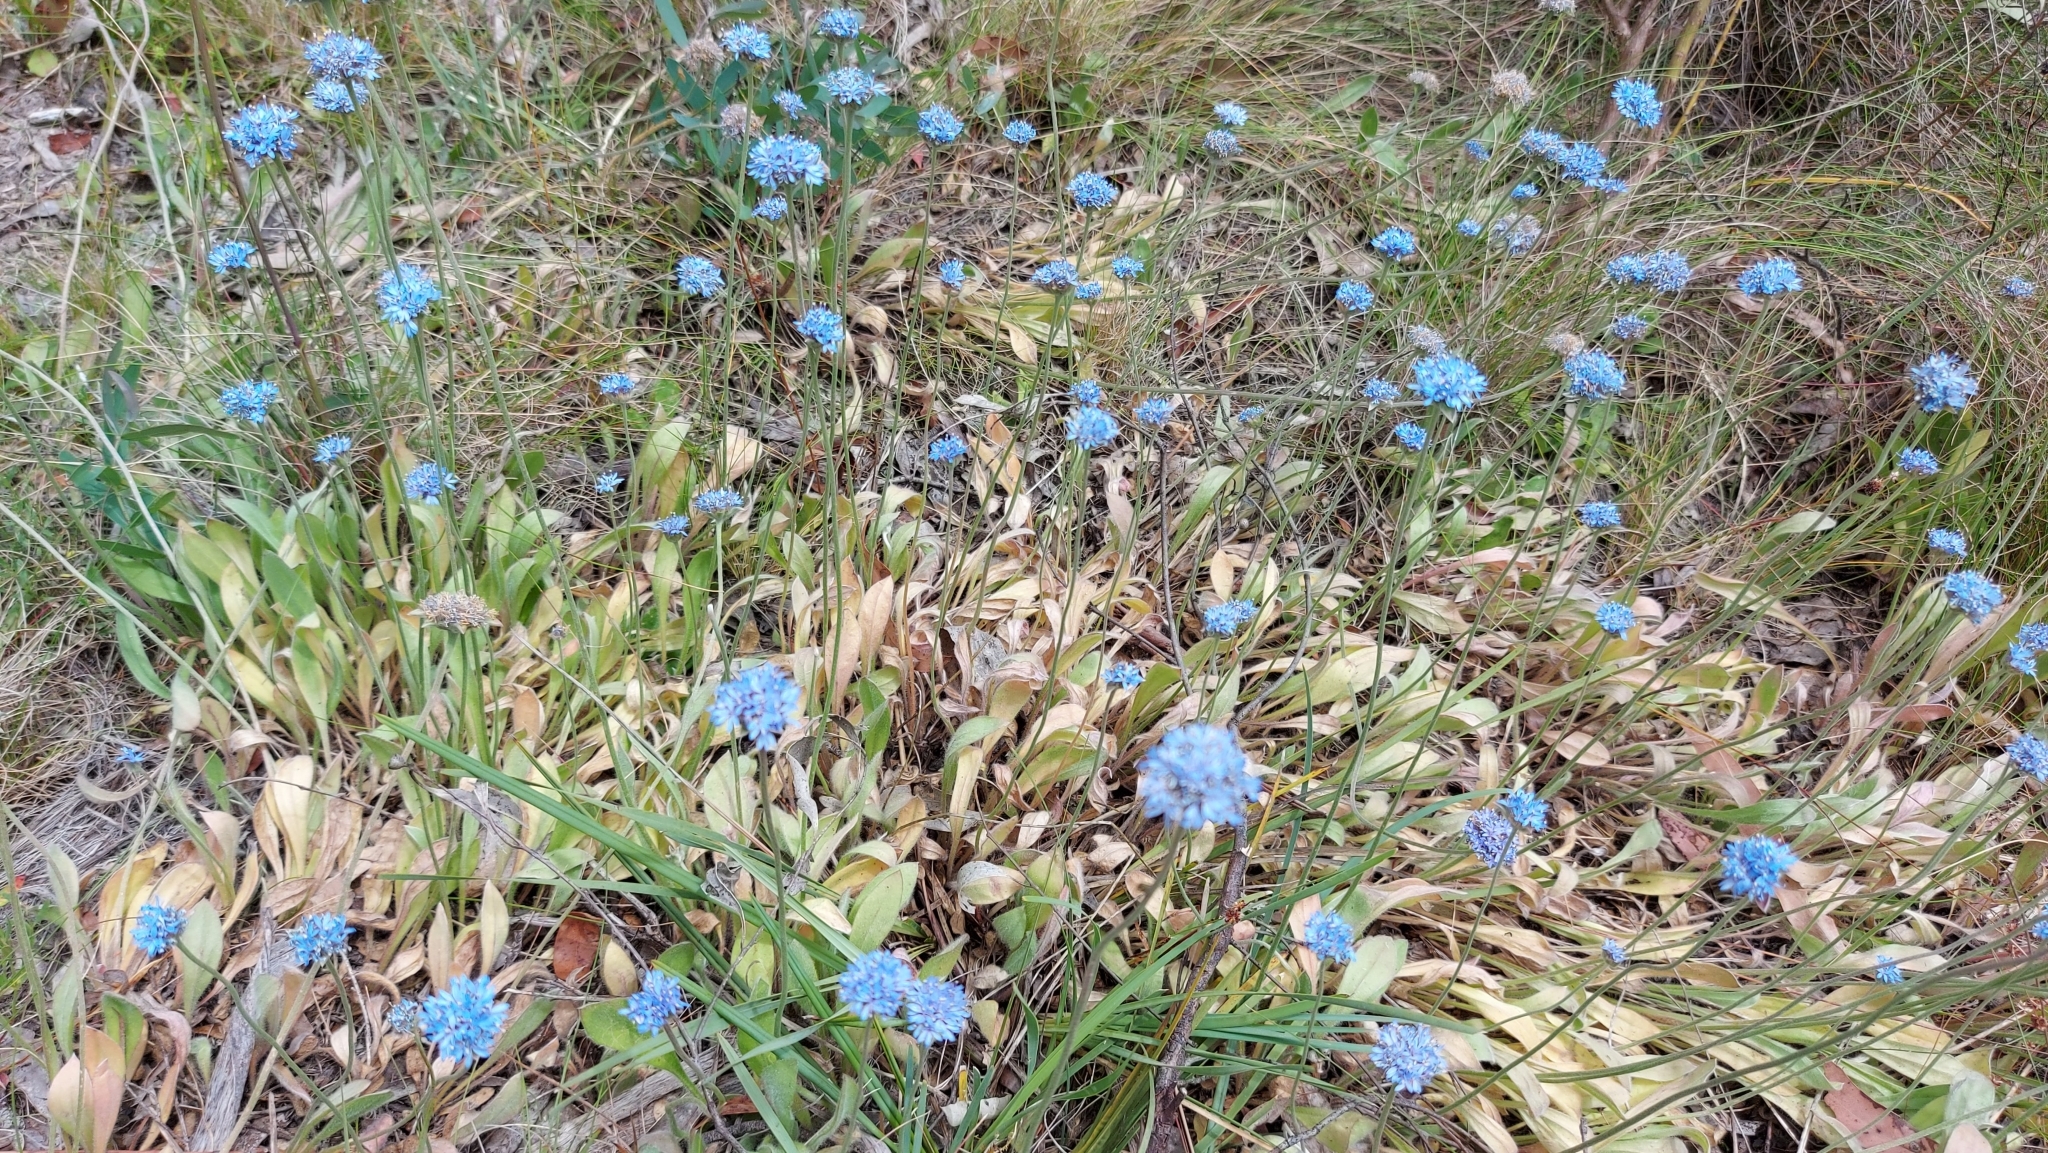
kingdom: Plantae
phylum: Tracheophyta
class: Magnoliopsida
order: Asterales
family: Goodeniaceae
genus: Brunonia
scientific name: Brunonia australis
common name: Blue pincushion
